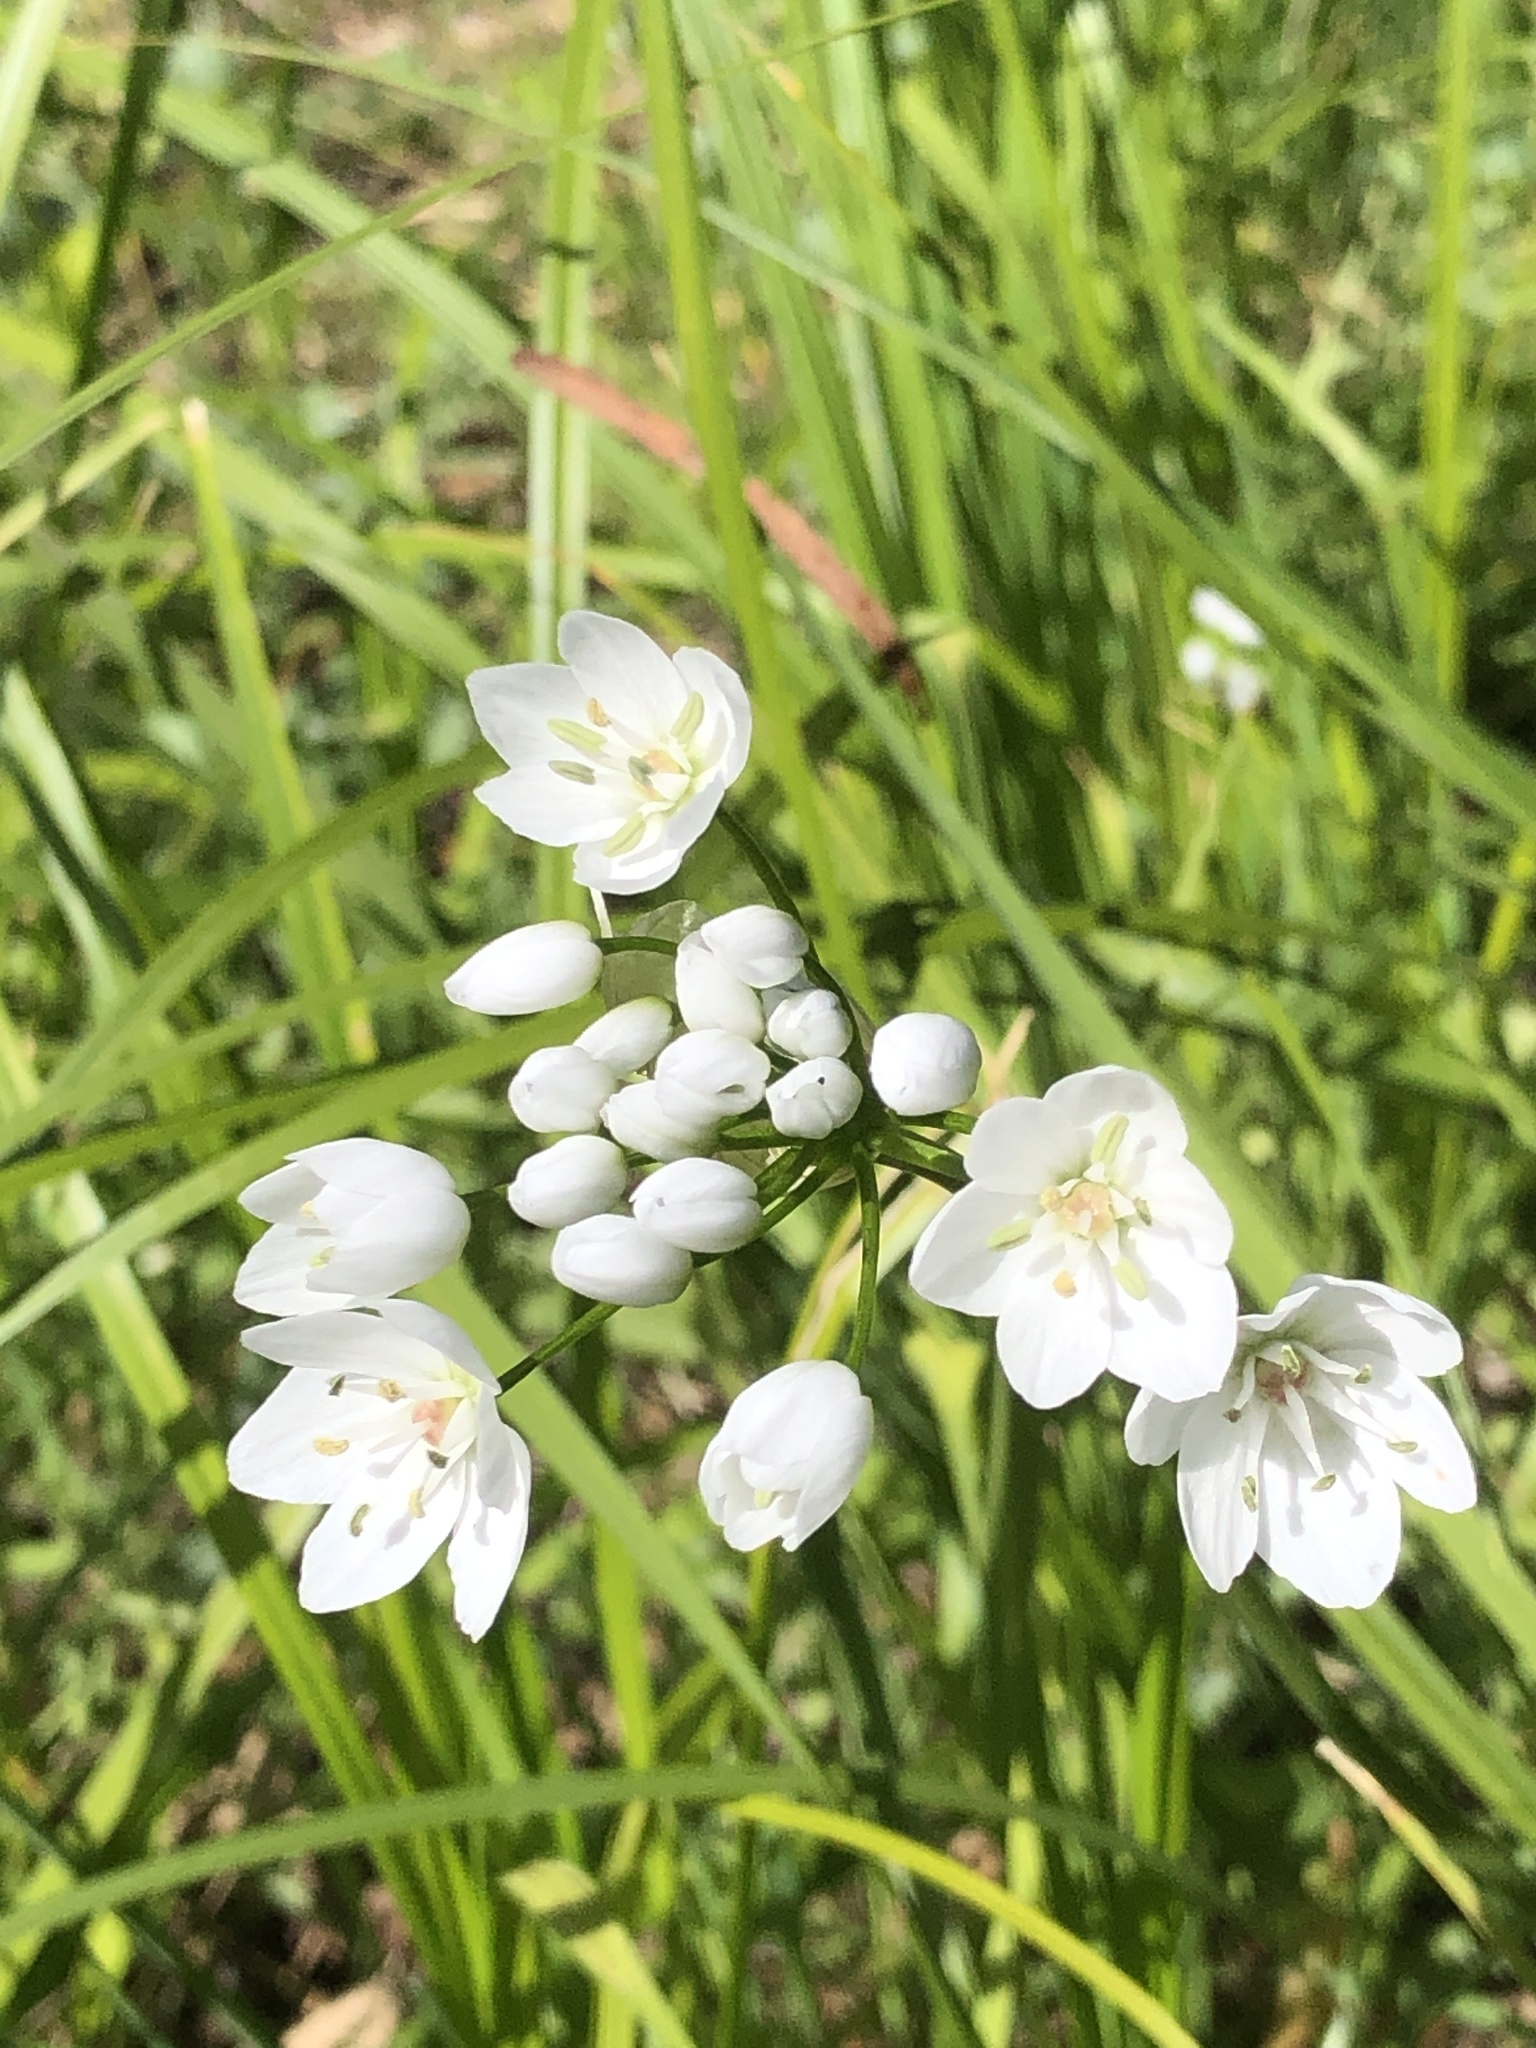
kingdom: Plantae
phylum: Tracheophyta
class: Liliopsida
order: Asparagales
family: Amaryllidaceae
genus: Allium
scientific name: Allium neapolitanum
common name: Neapolitan garlic
